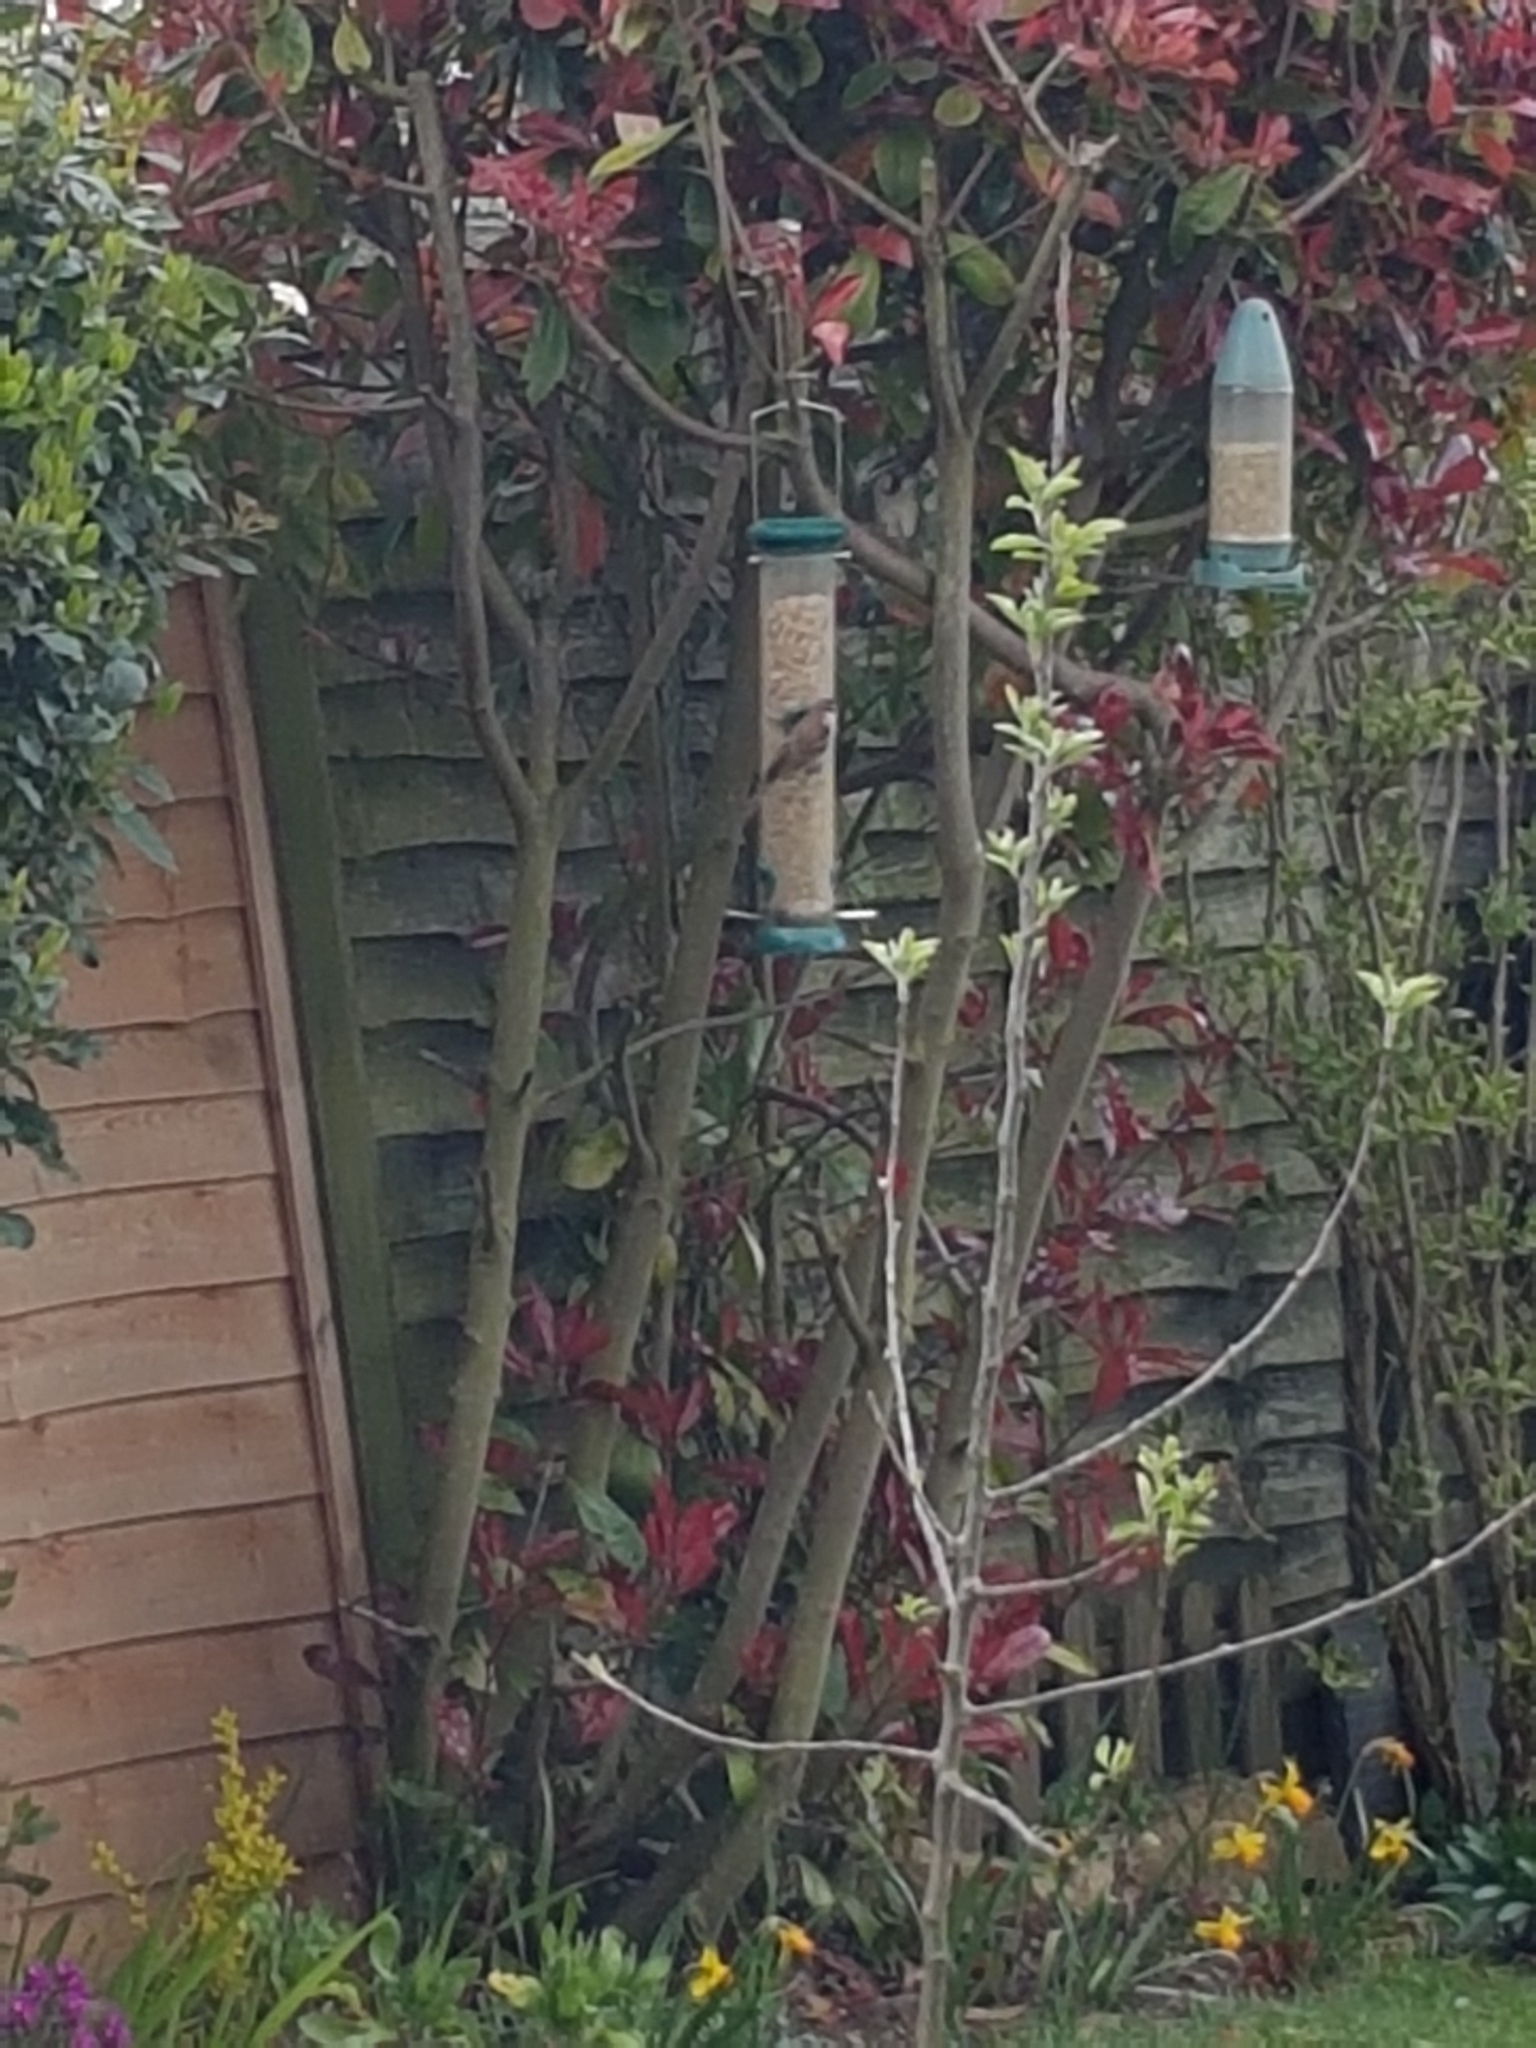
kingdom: Animalia
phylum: Chordata
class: Aves
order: Passeriformes
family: Passeridae
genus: Passer
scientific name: Passer domesticus
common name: House sparrow
